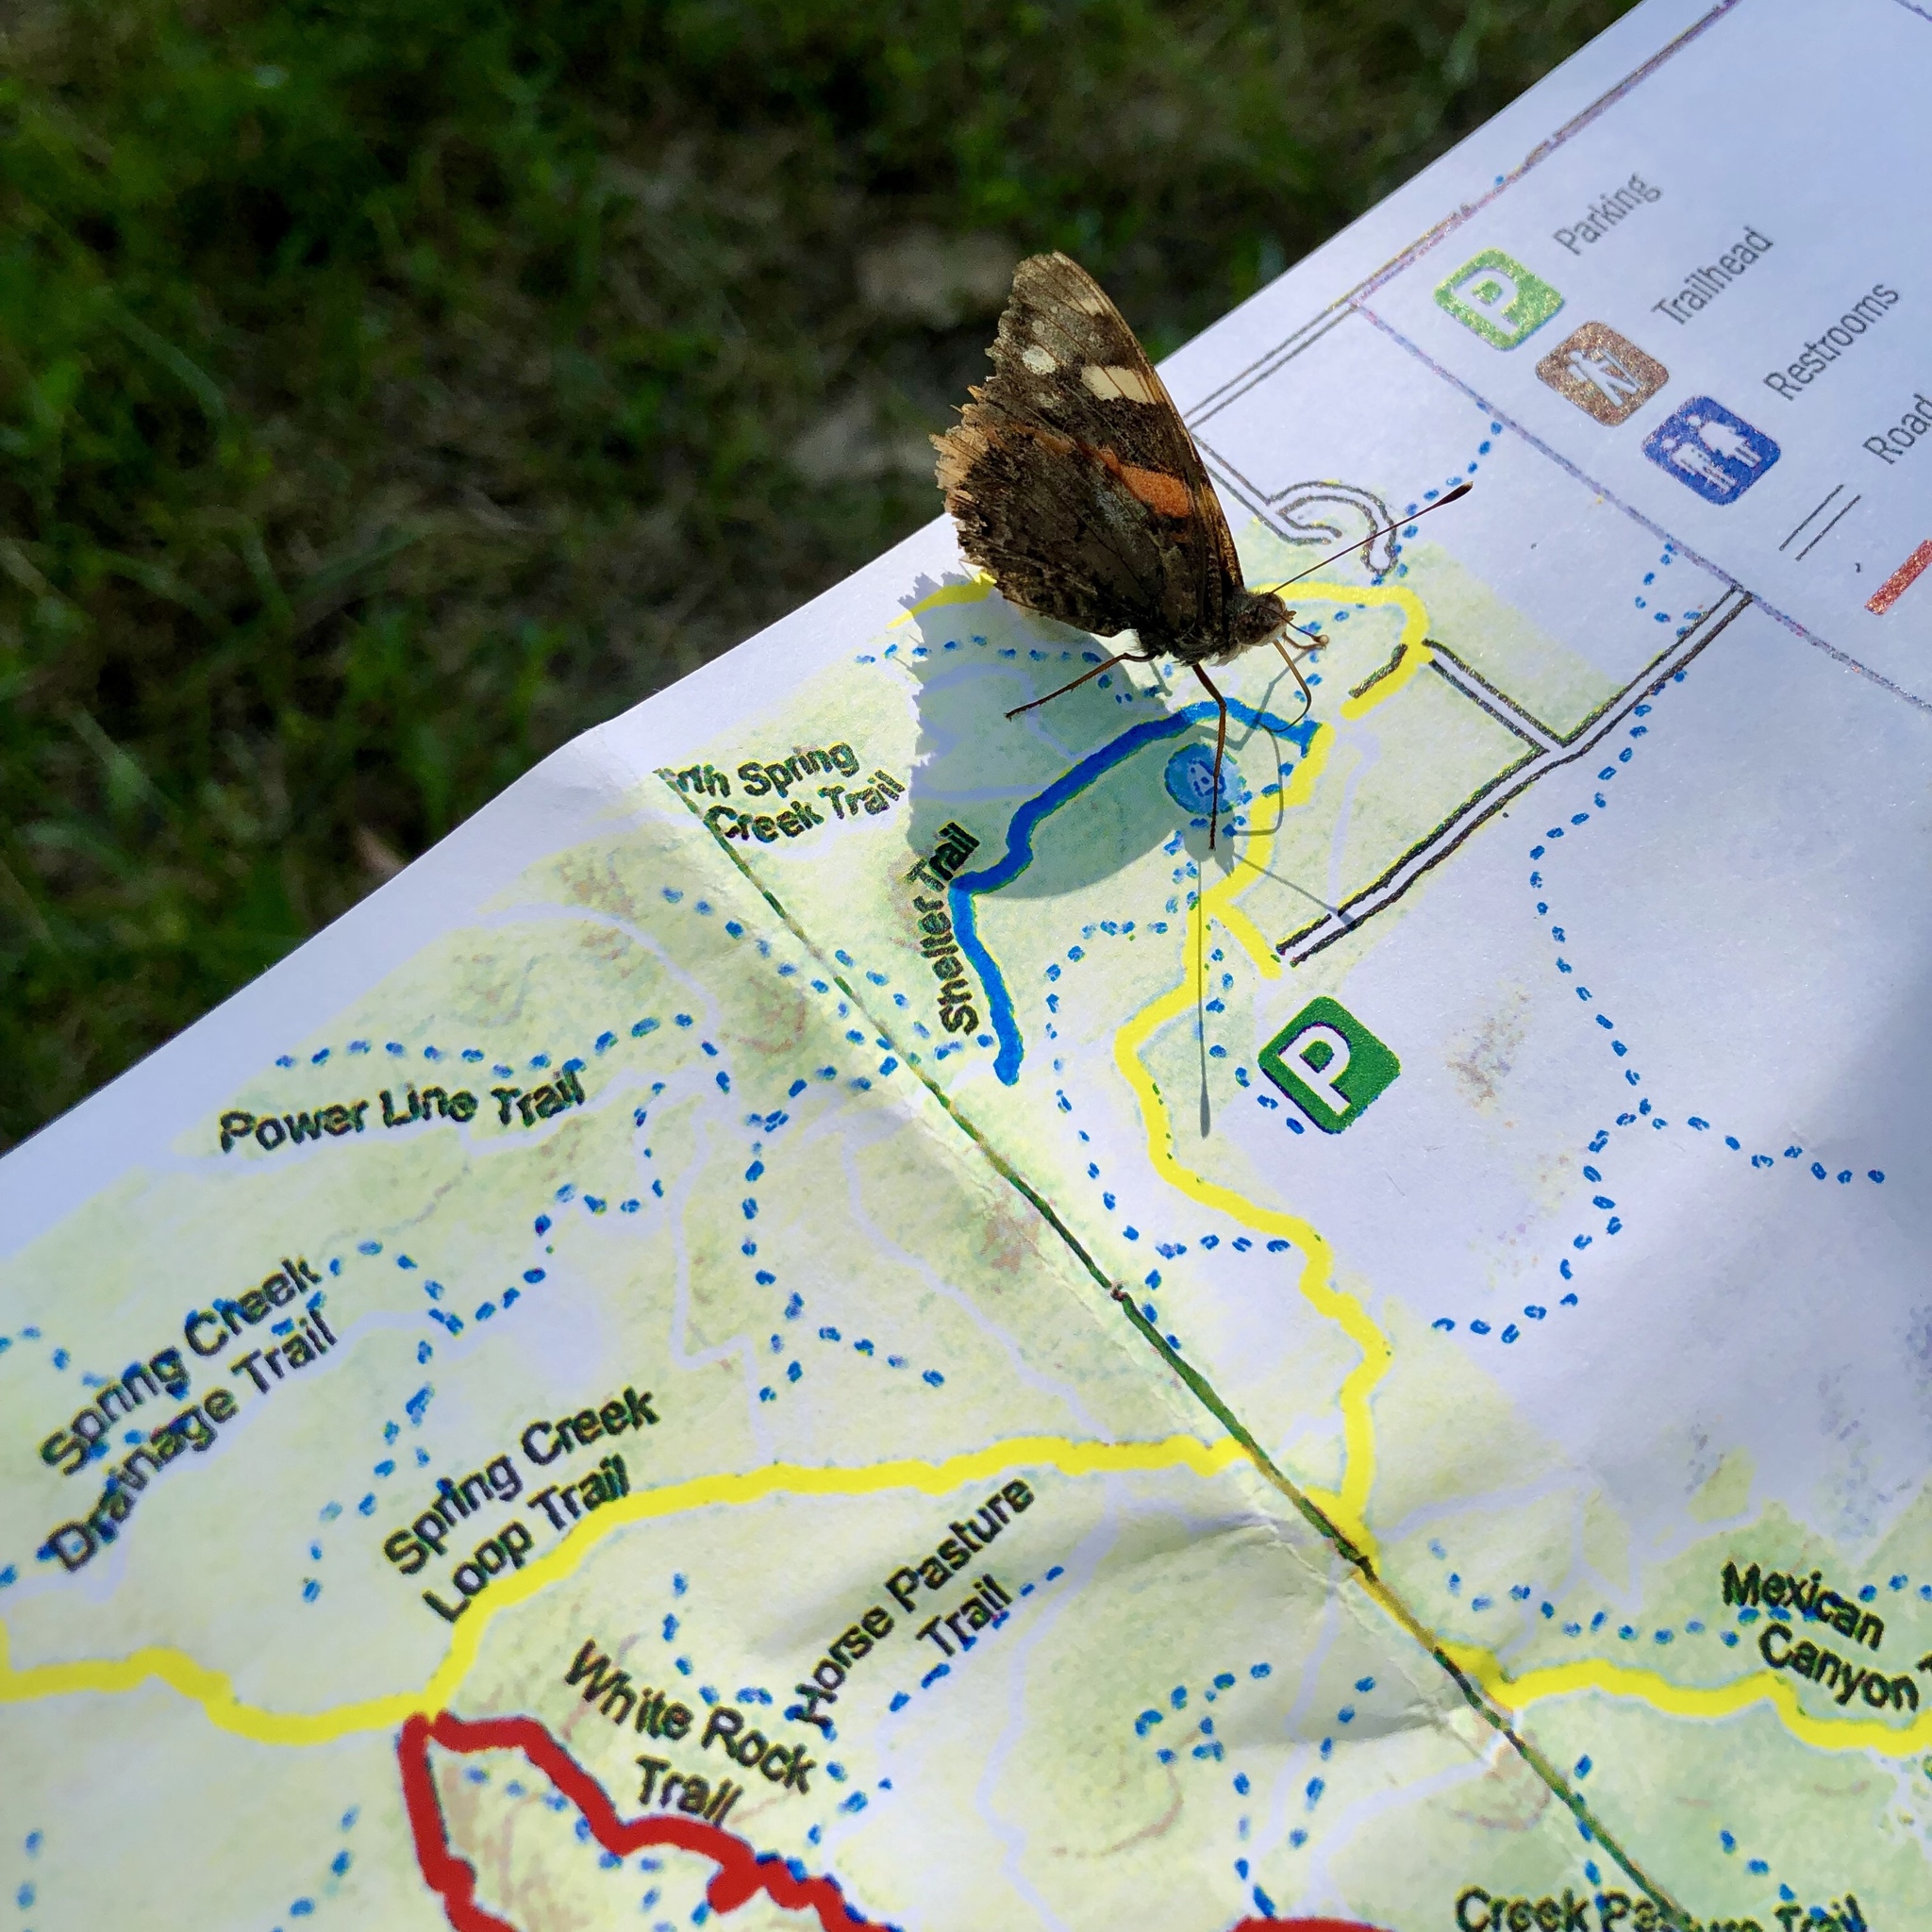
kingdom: Animalia
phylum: Arthropoda
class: Insecta
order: Lepidoptera
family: Nymphalidae
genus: Vanessa
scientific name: Vanessa atalanta
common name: Red admiral
